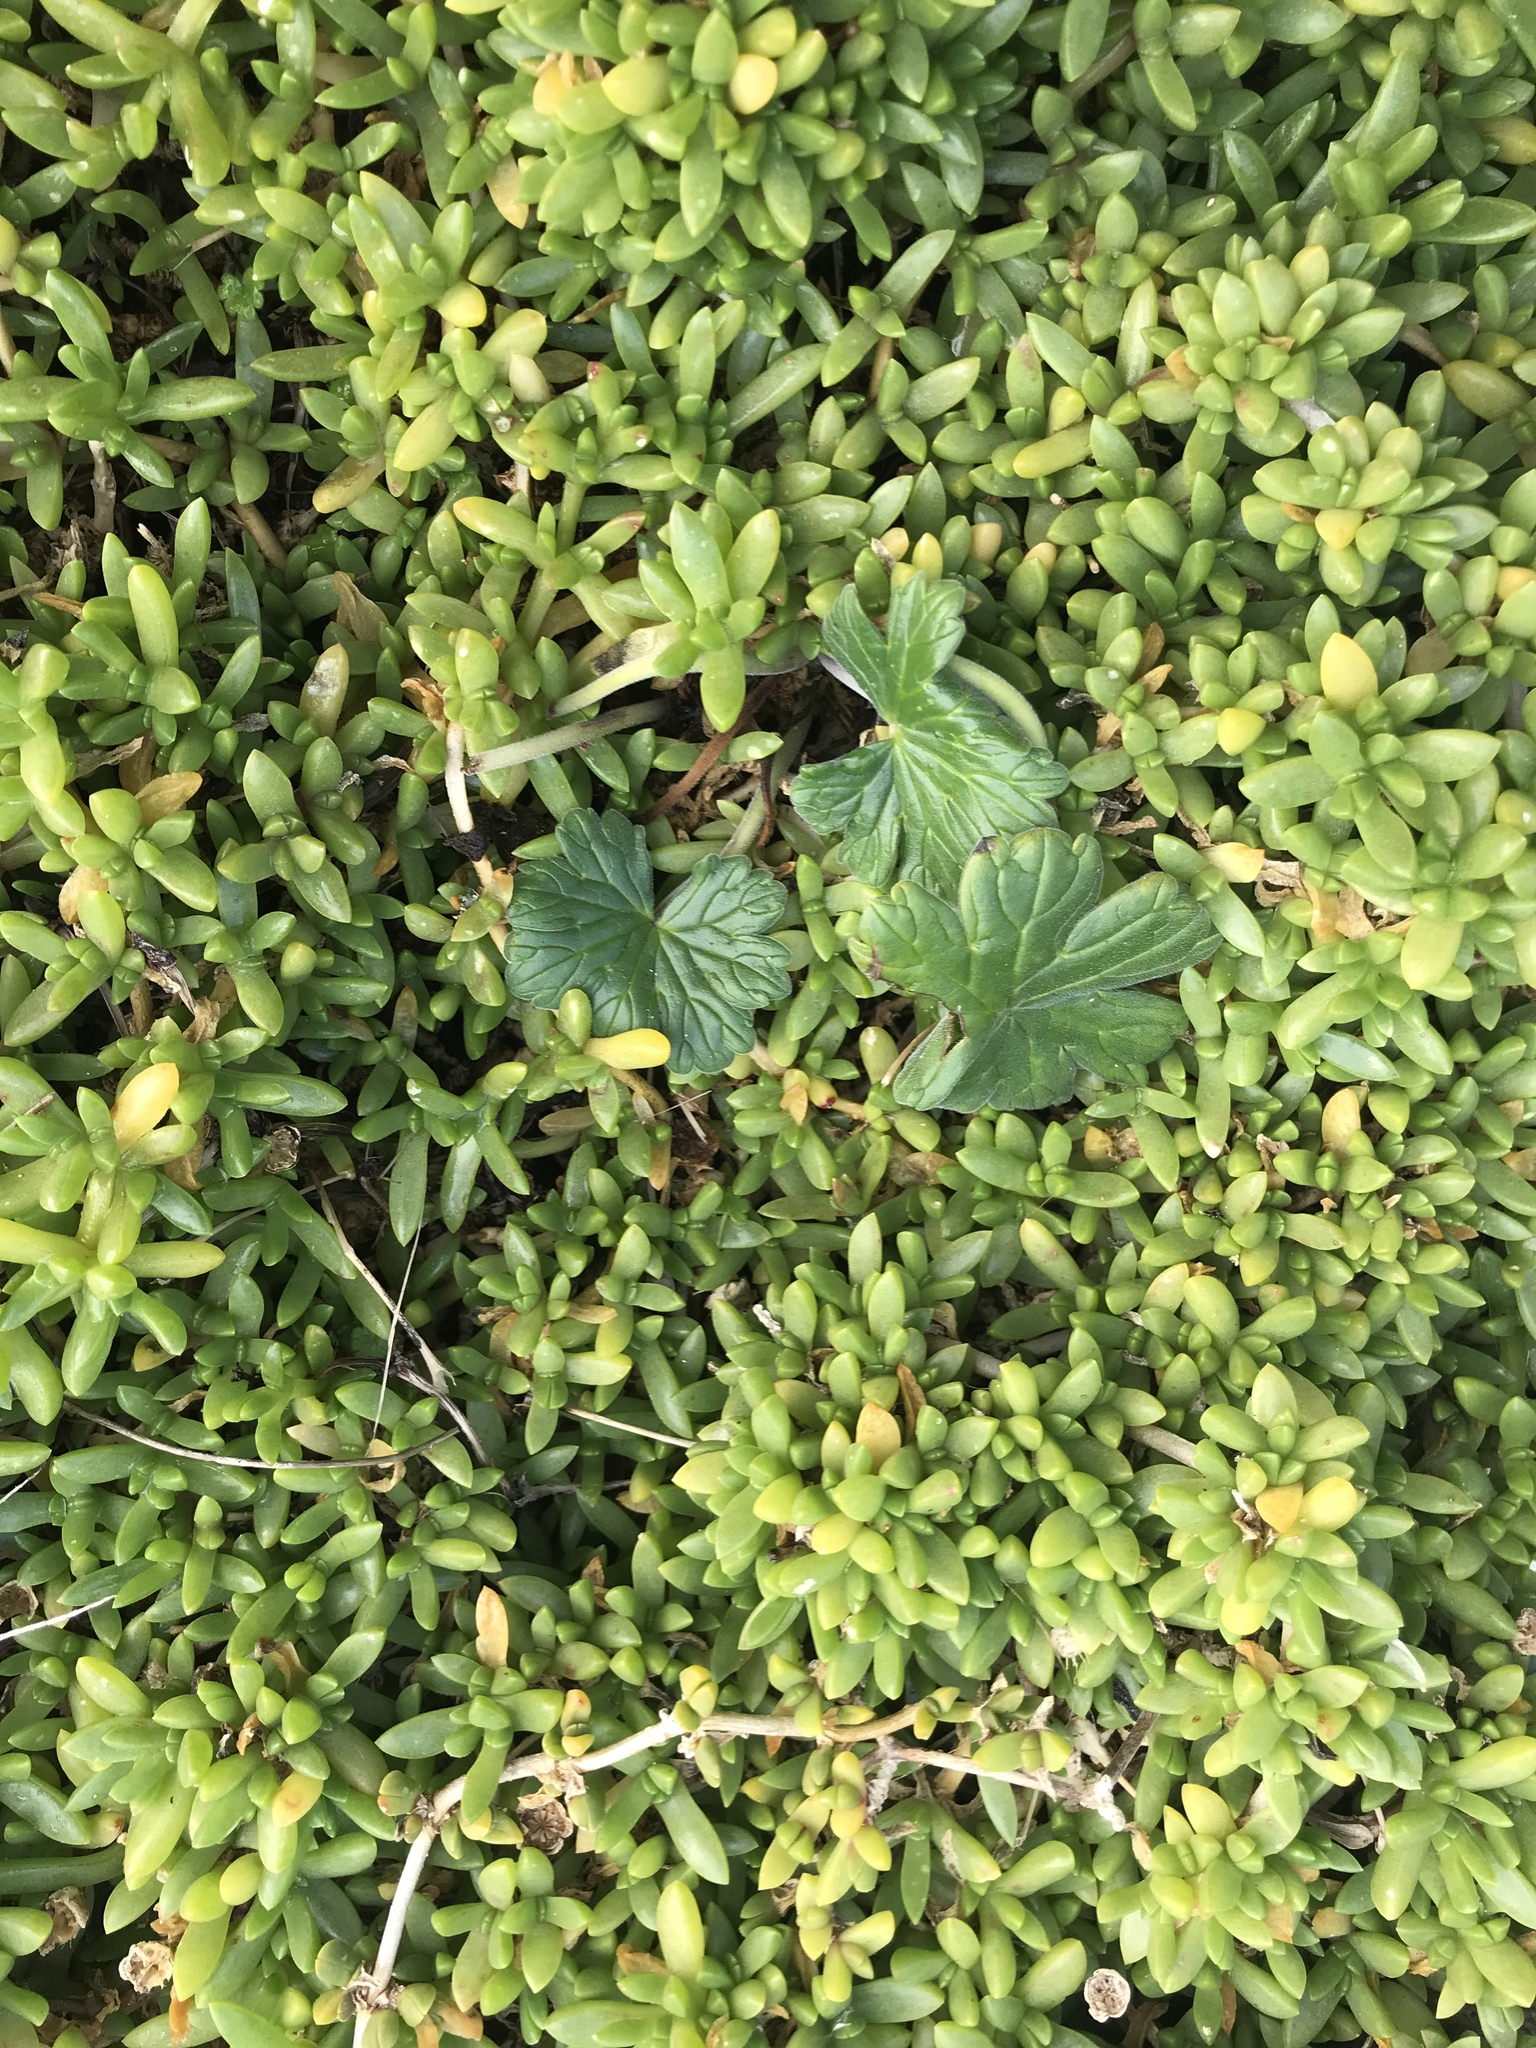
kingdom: Plantae
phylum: Tracheophyta
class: Magnoliopsida
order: Geraniales
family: Geraniaceae
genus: Geranium
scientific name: Geranium traversii
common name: Cranesbill
